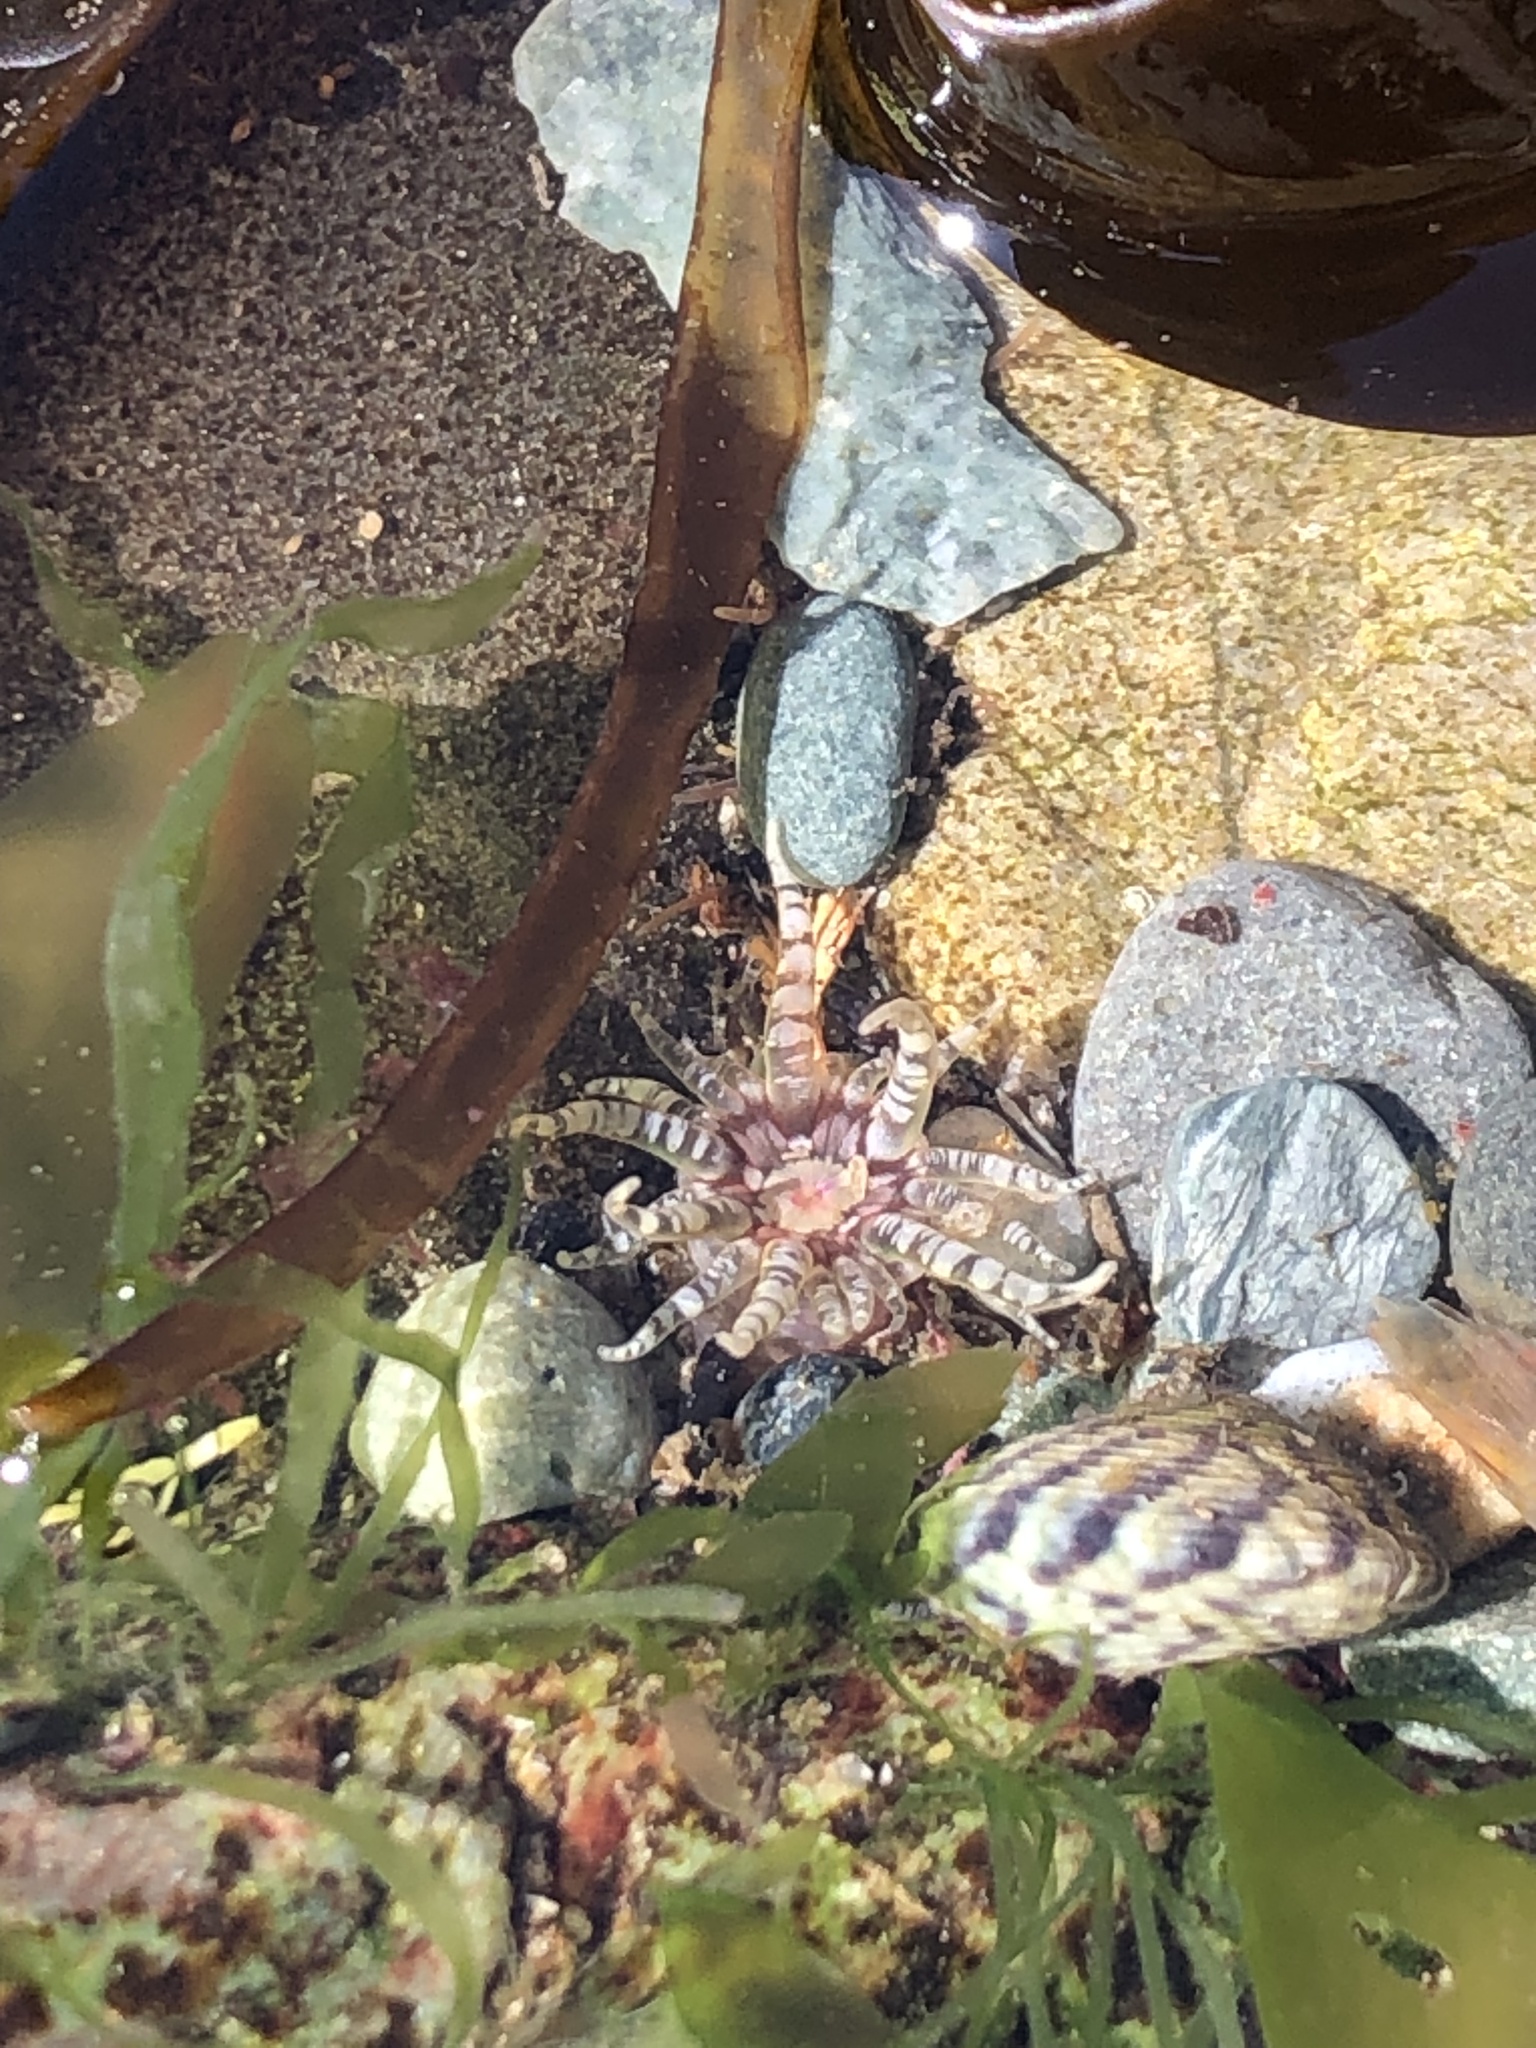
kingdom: Animalia
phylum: Cnidaria
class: Anthozoa
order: Actiniaria
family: Actiniidae
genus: Bunodactis
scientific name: Bunodactis verrucosa
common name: Gem anemone
